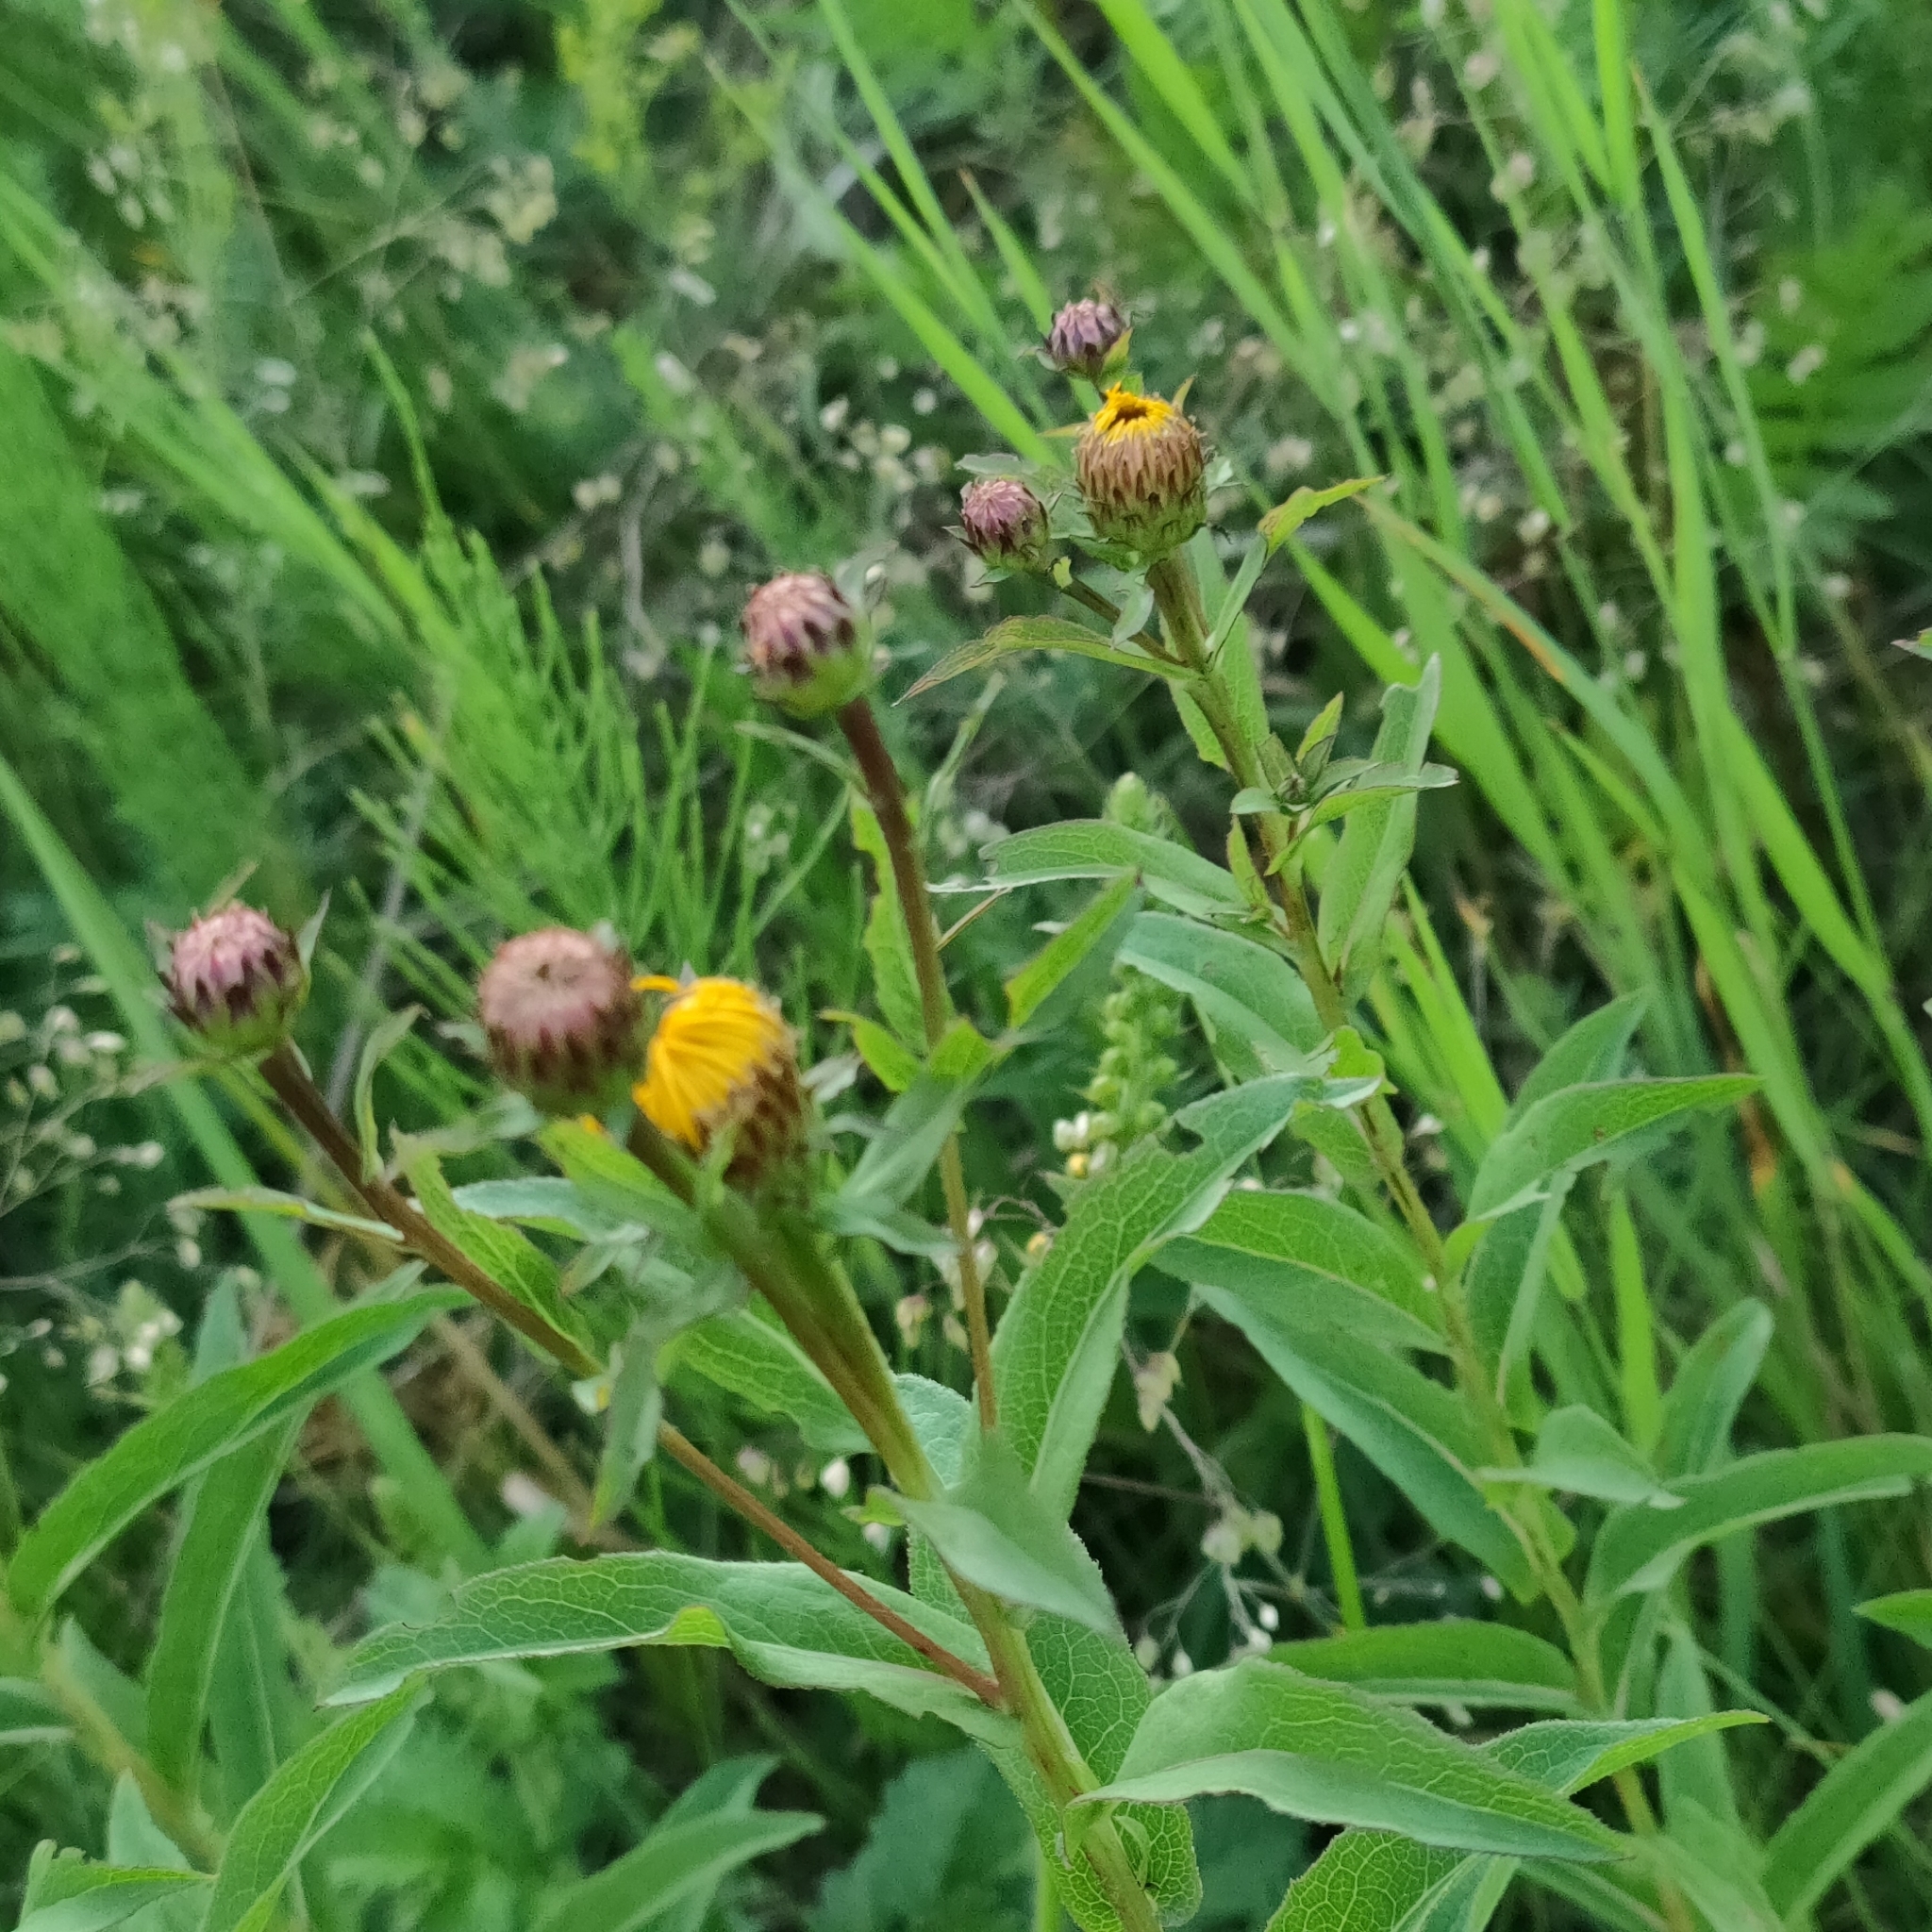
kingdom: Plantae
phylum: Tracheophyta
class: Magnoliopsida
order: Asterales
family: Asteraceae
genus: Pentanema
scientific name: Pentanema salicinum
